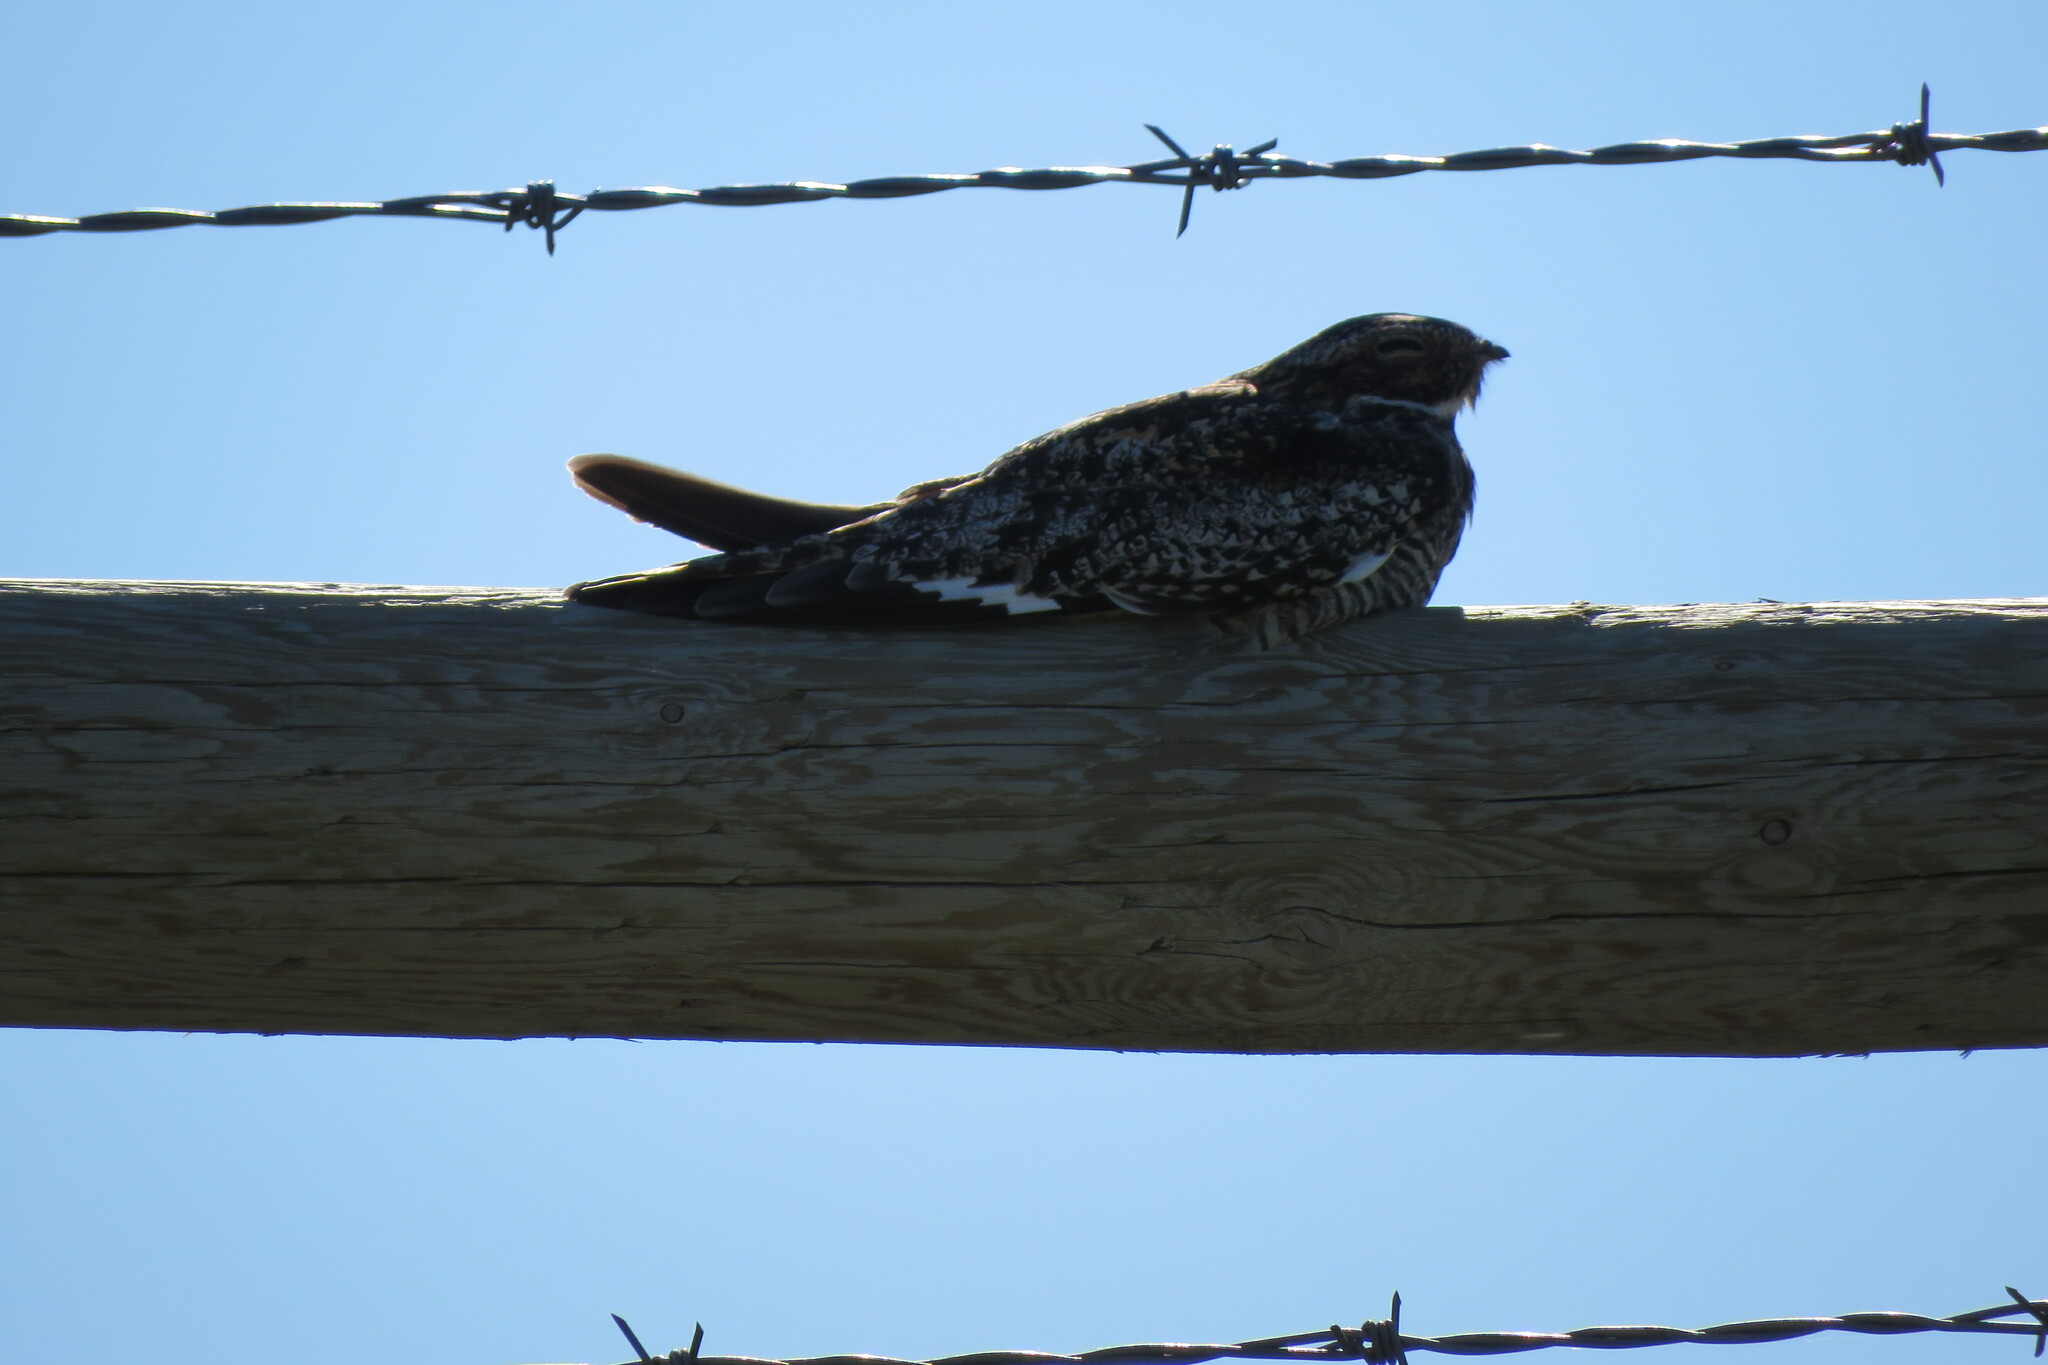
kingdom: Animalia
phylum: Chordata
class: Aves
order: Caprimulgiformes
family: Caprimulgidae
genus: Chordeiles
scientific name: Chordeiles minor
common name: Common nighthawk
